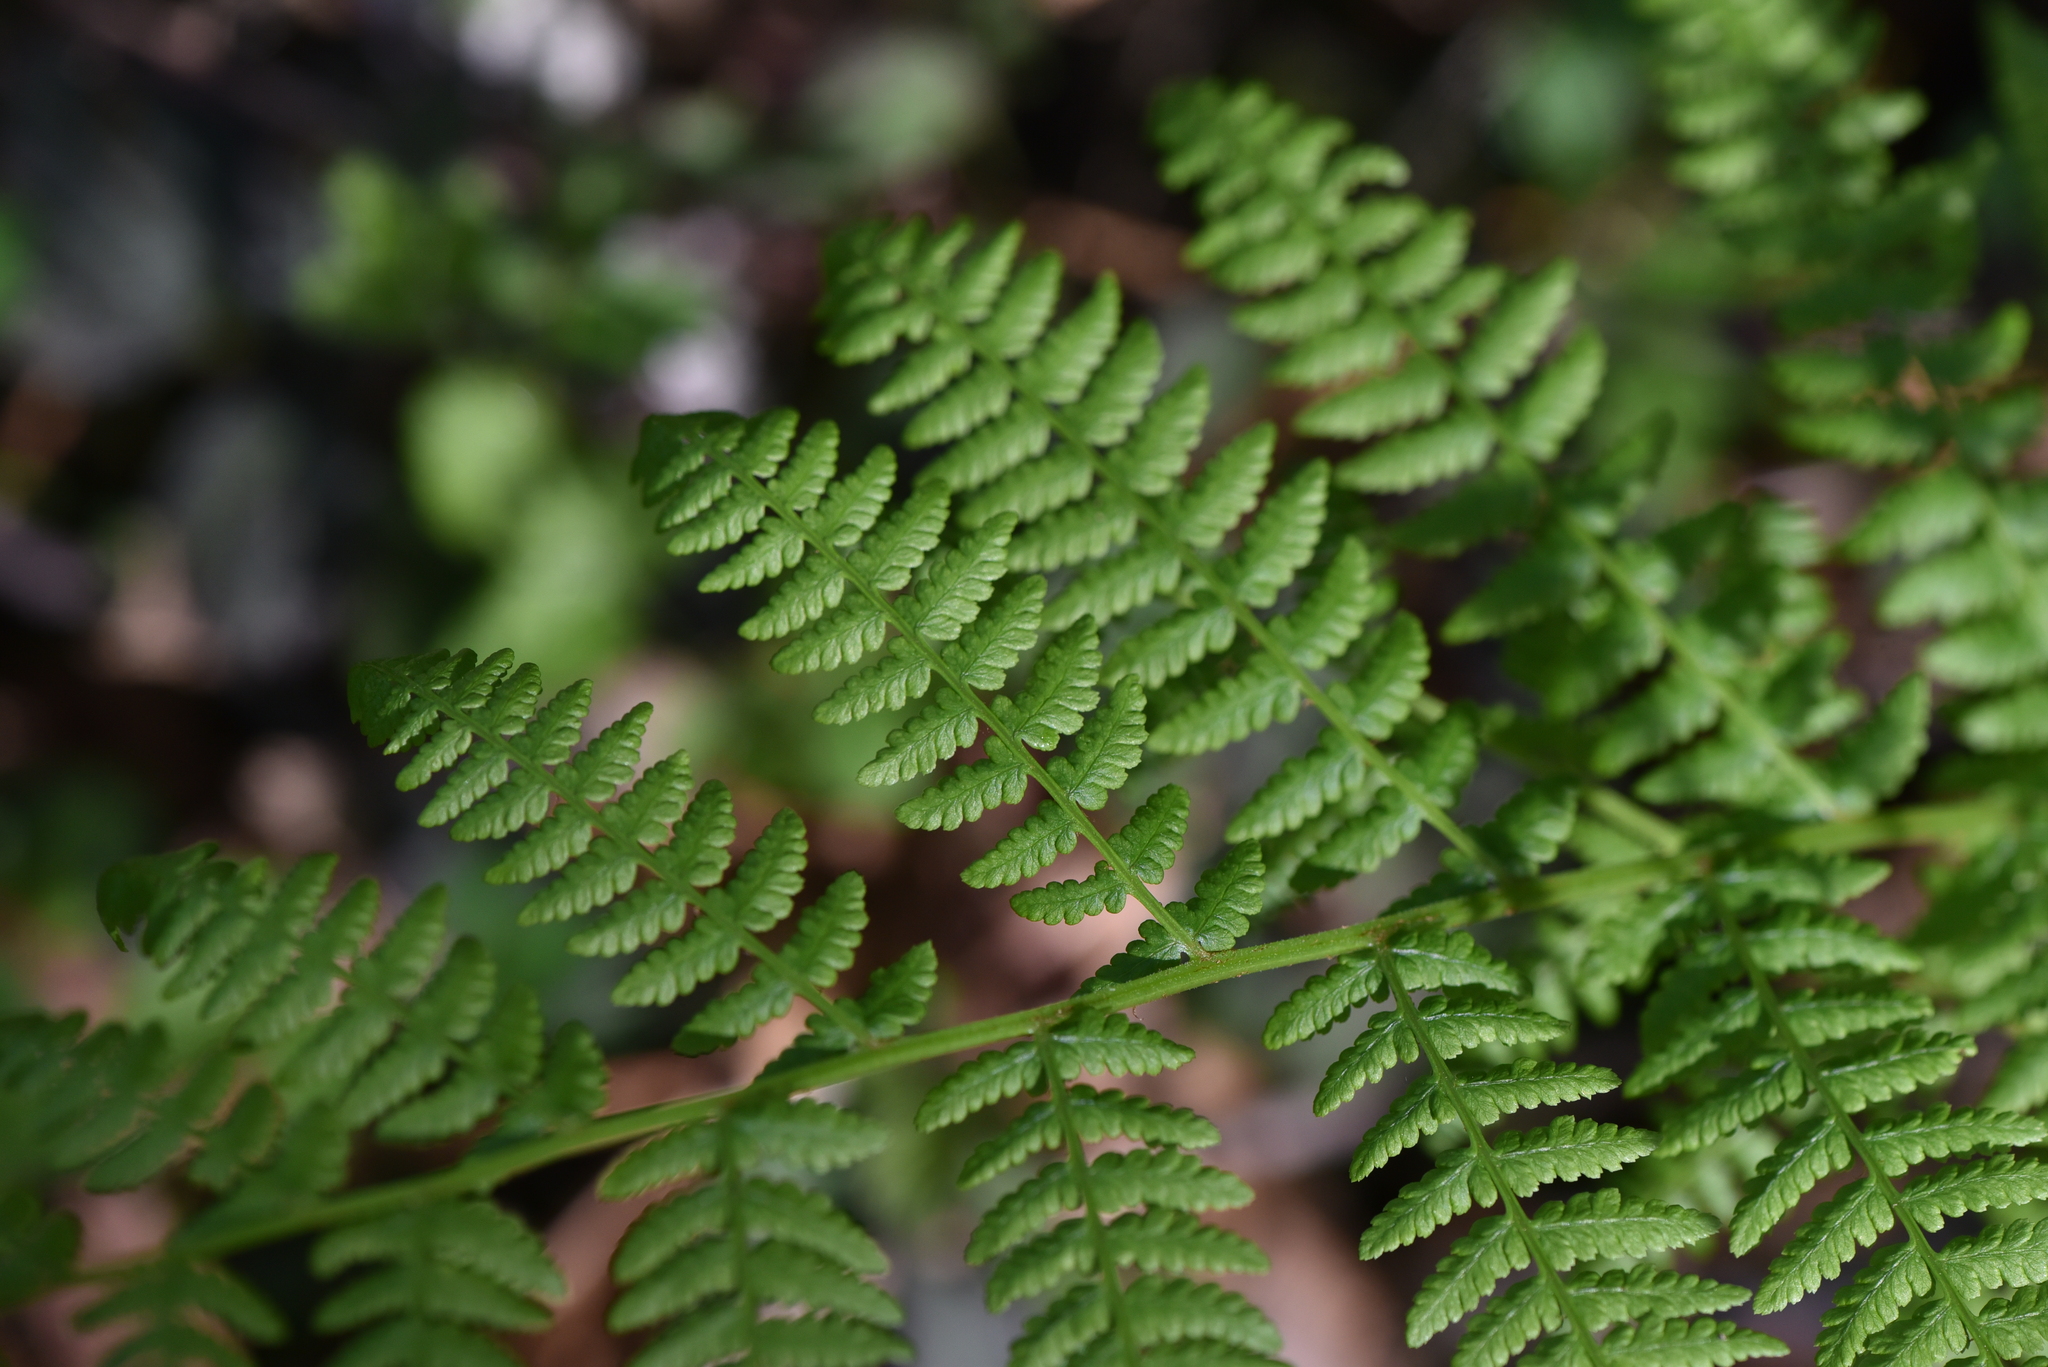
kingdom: Plantae
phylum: Tracheophyta
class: Polypodiopsida
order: Polypodiales
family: Athyriaceae
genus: Athyrium
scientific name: Athyrium filix-femina
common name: Lady fern
